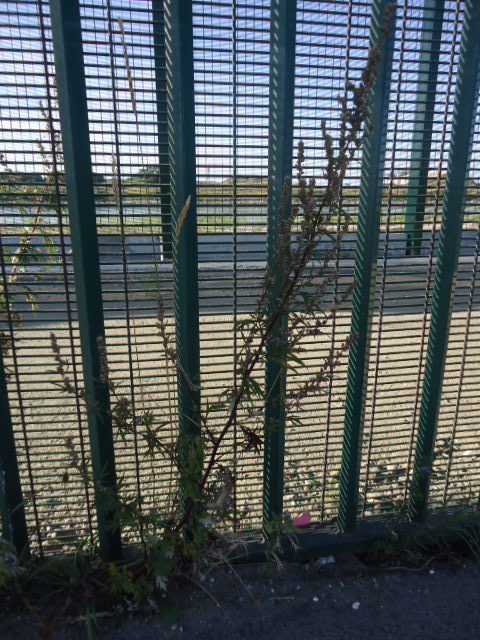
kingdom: Plantae
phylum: Tracheophyta
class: Magnoliopsida
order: Asterales
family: Asteraceae
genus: Artemisia
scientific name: Artemisia vulgaris
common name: Mugwort
